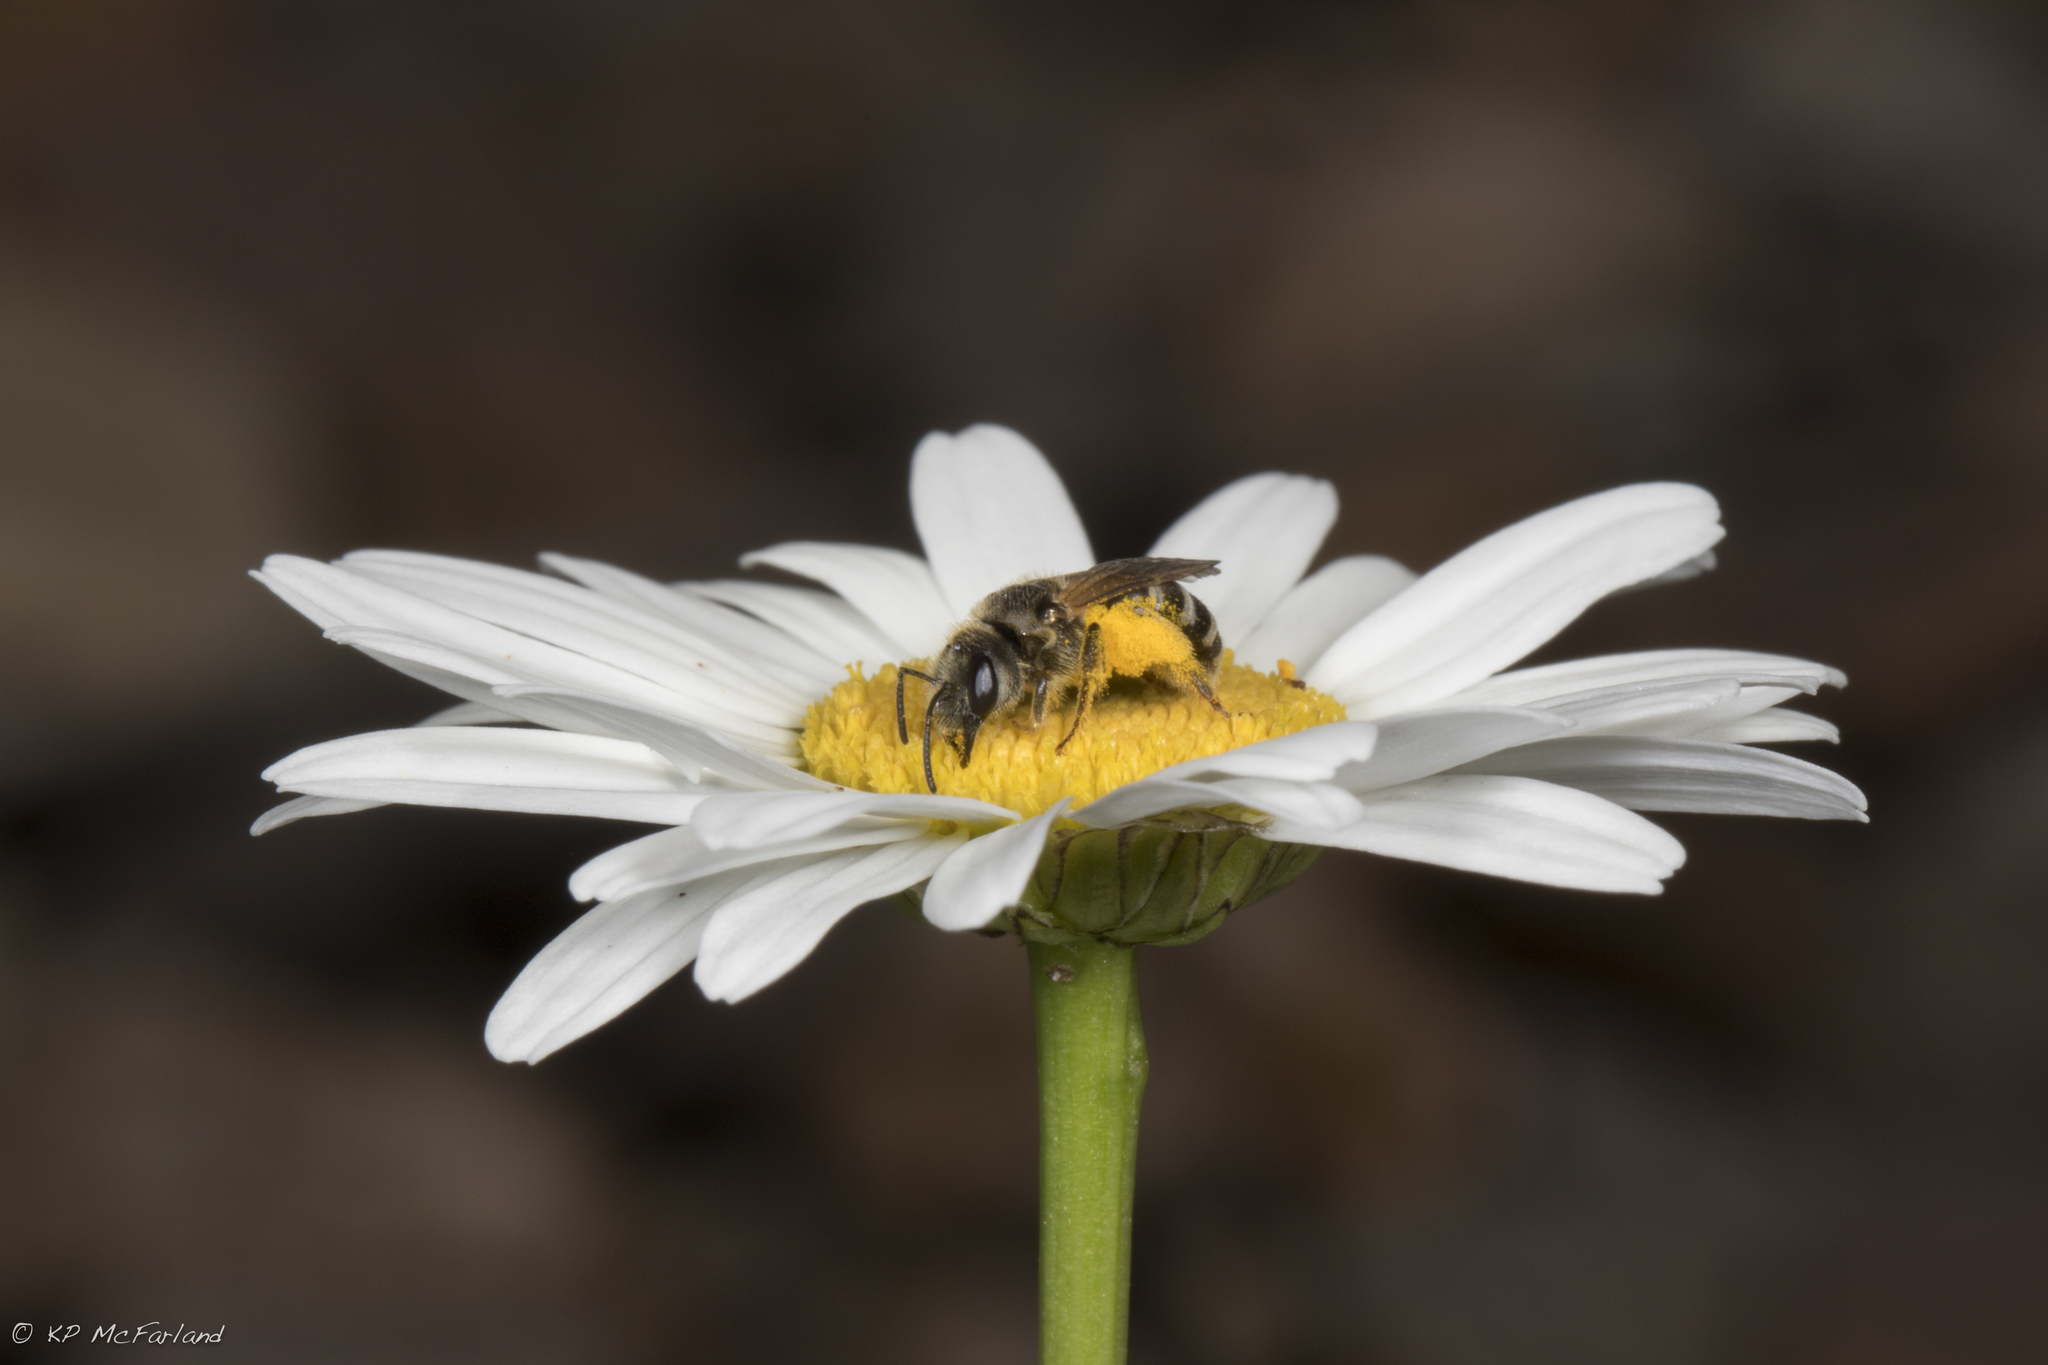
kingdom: Animalia
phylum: Arthropoda
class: Insecta
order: Hymenoptera
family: Halictidae
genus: Halictus
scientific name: Halictus ligatus
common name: Ligated furrow bee
